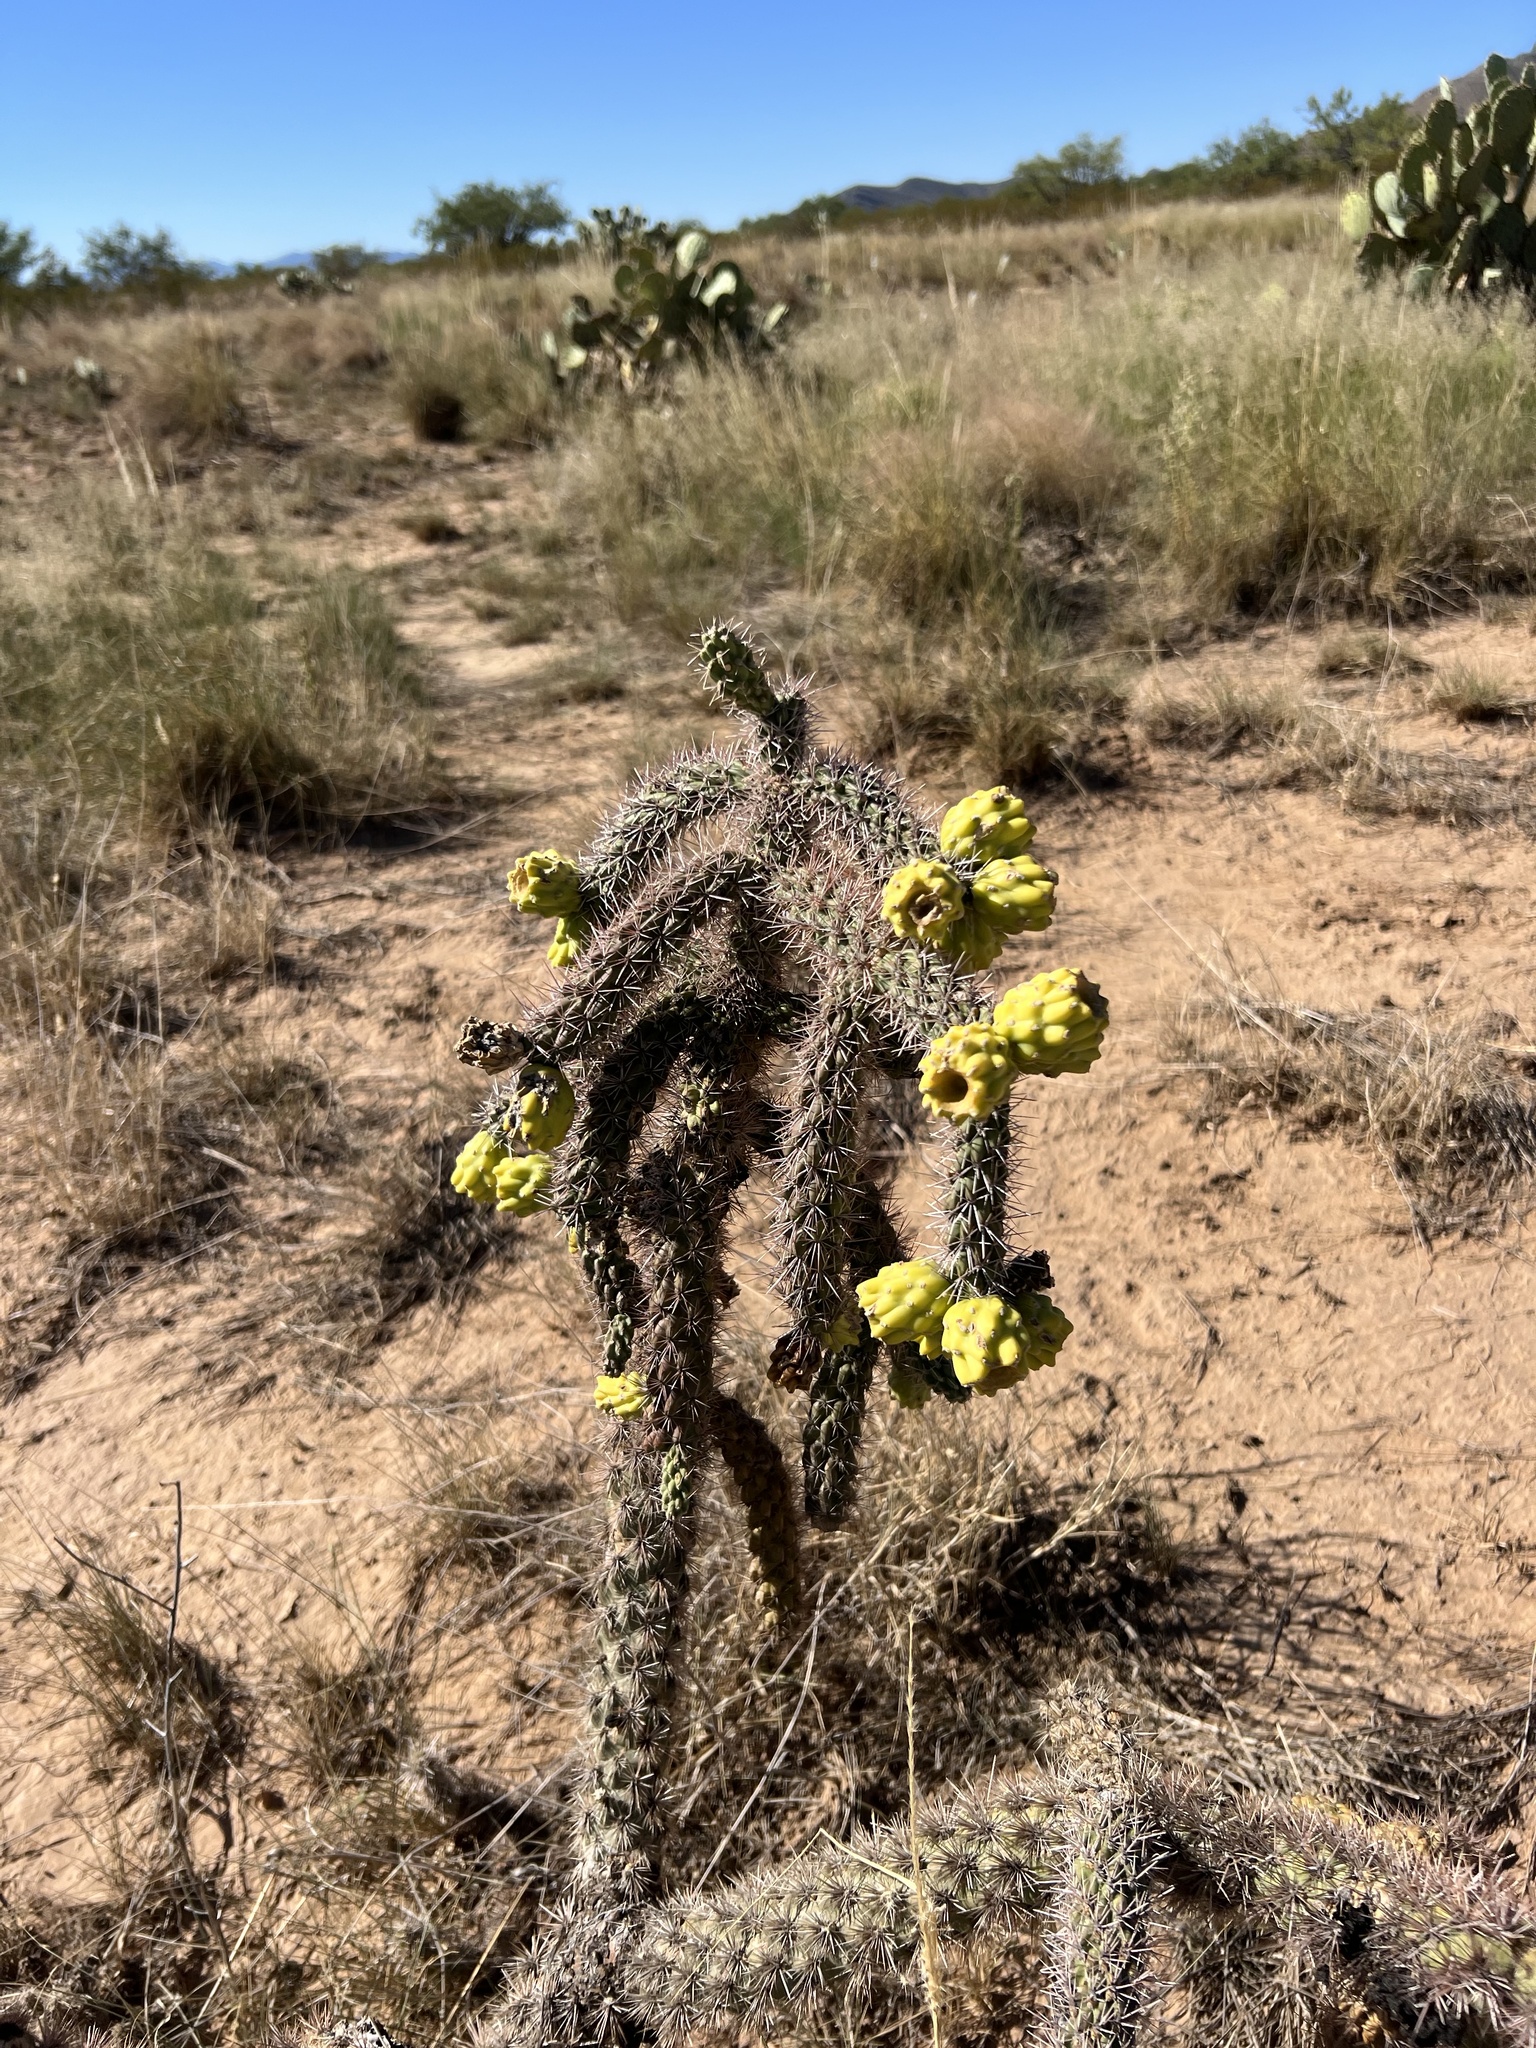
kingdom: Plantae
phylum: Tracheophyta
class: Magnoliopsida
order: Caryophyllales
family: Cactaceae
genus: Cylindropuntia
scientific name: Cylindropuntia imbricata
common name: Candelabrum cactus
